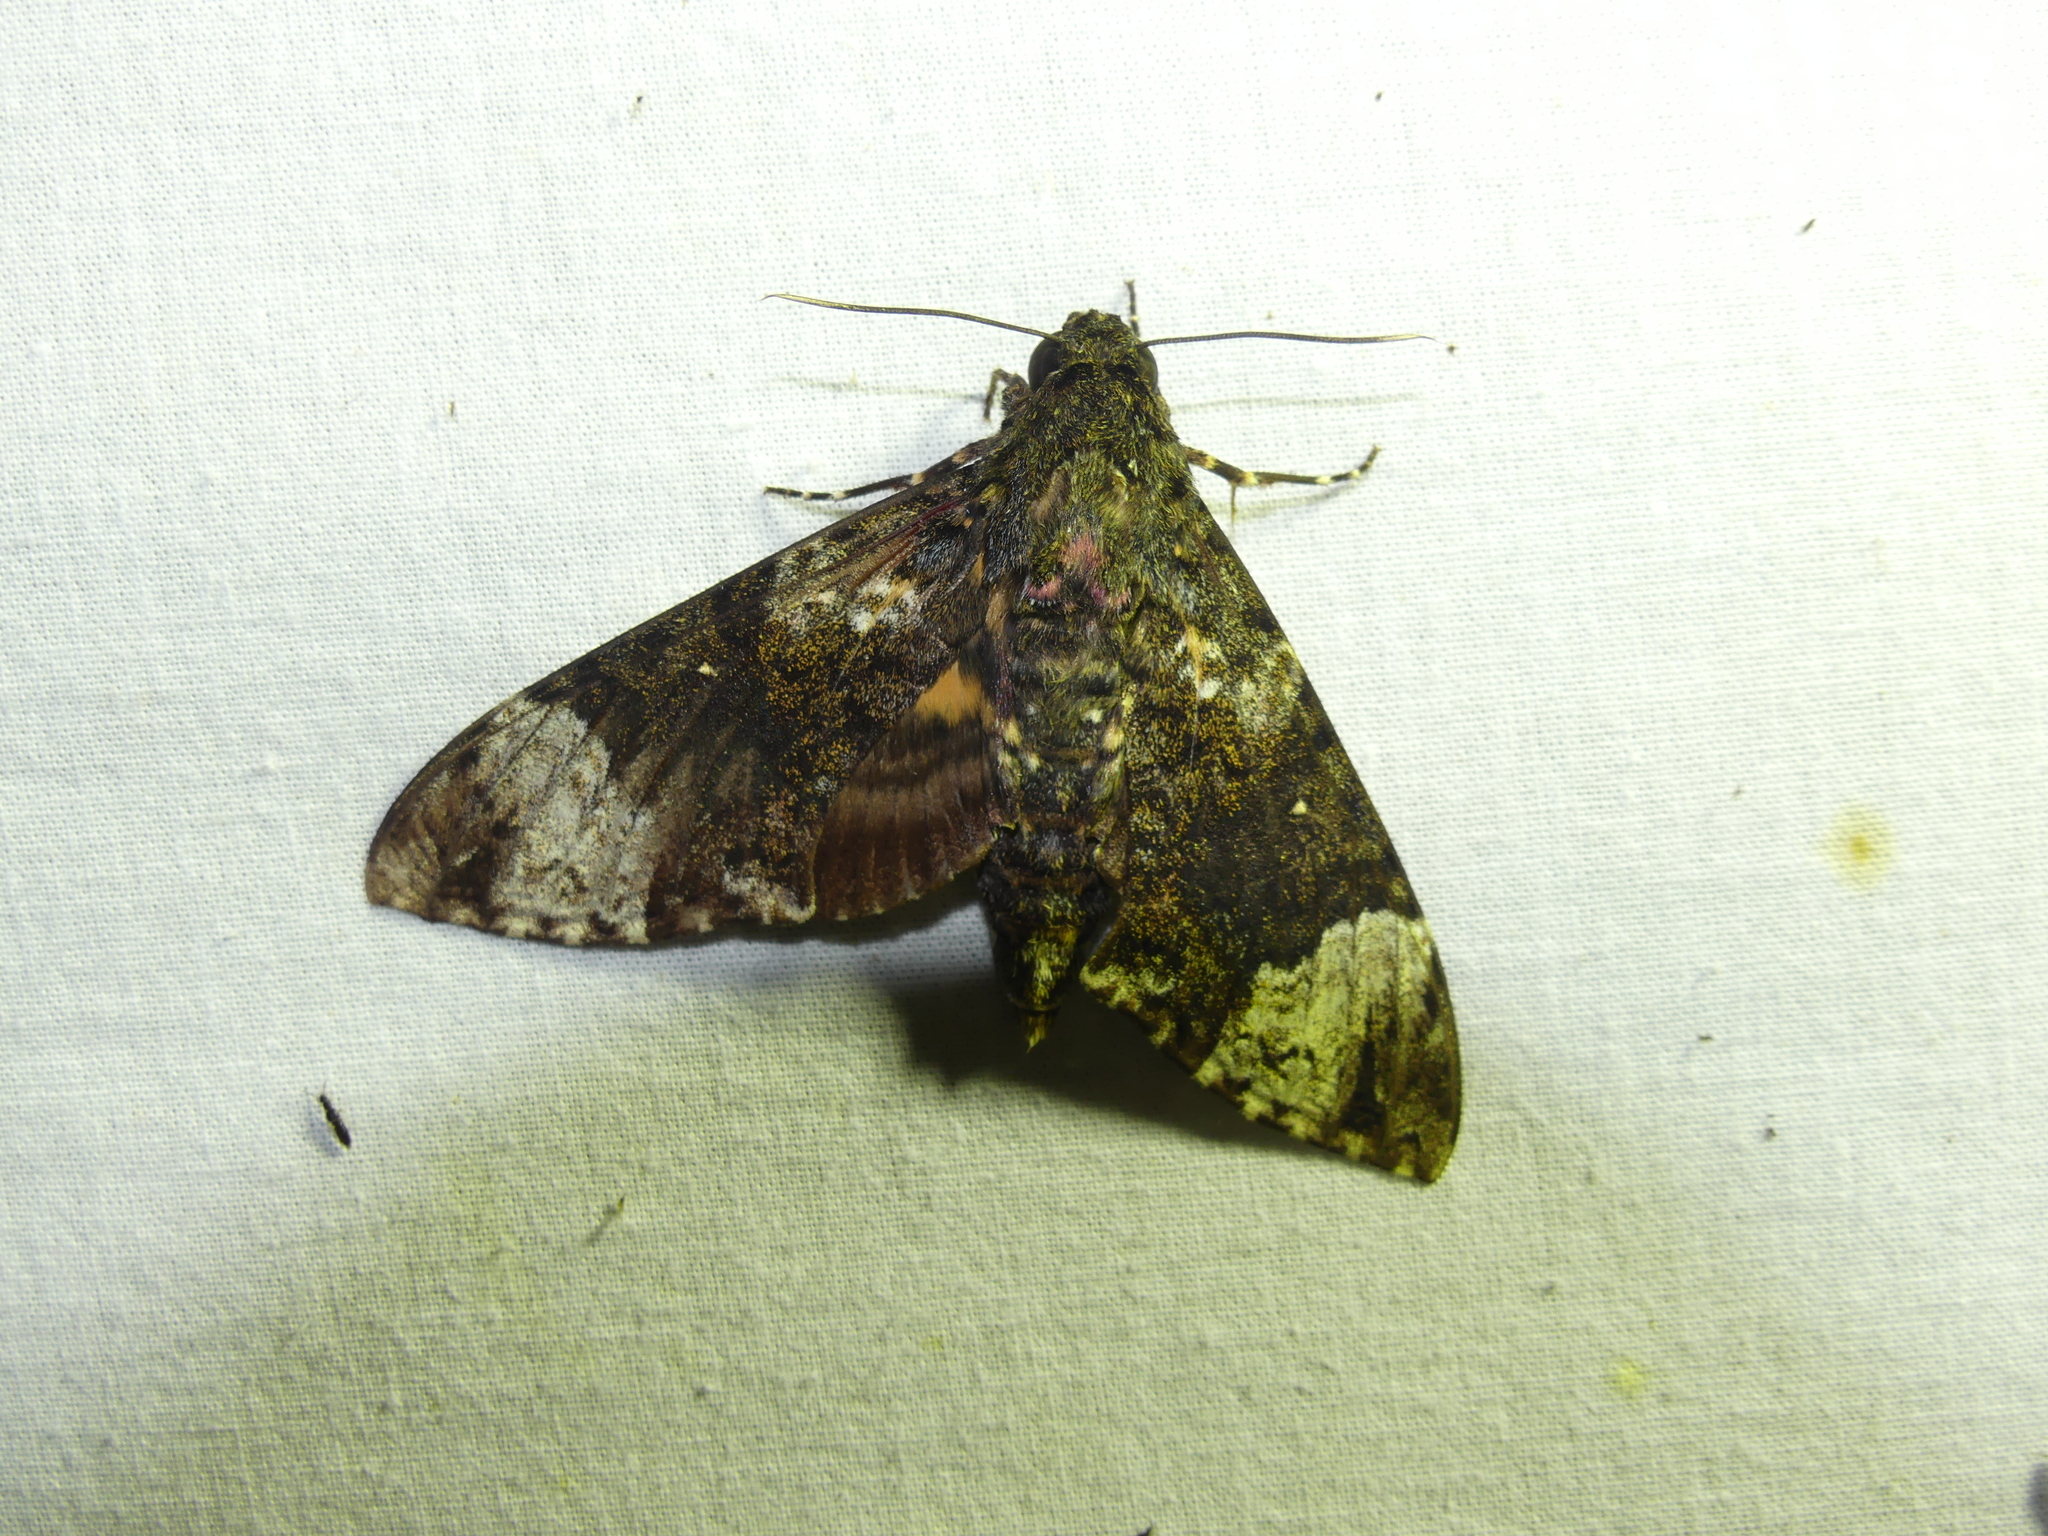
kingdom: Animalia
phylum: Arthropoda
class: Insecta
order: Lepidoptera
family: Sphingidae
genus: Coelonia
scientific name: Coelonia fulvinotata
